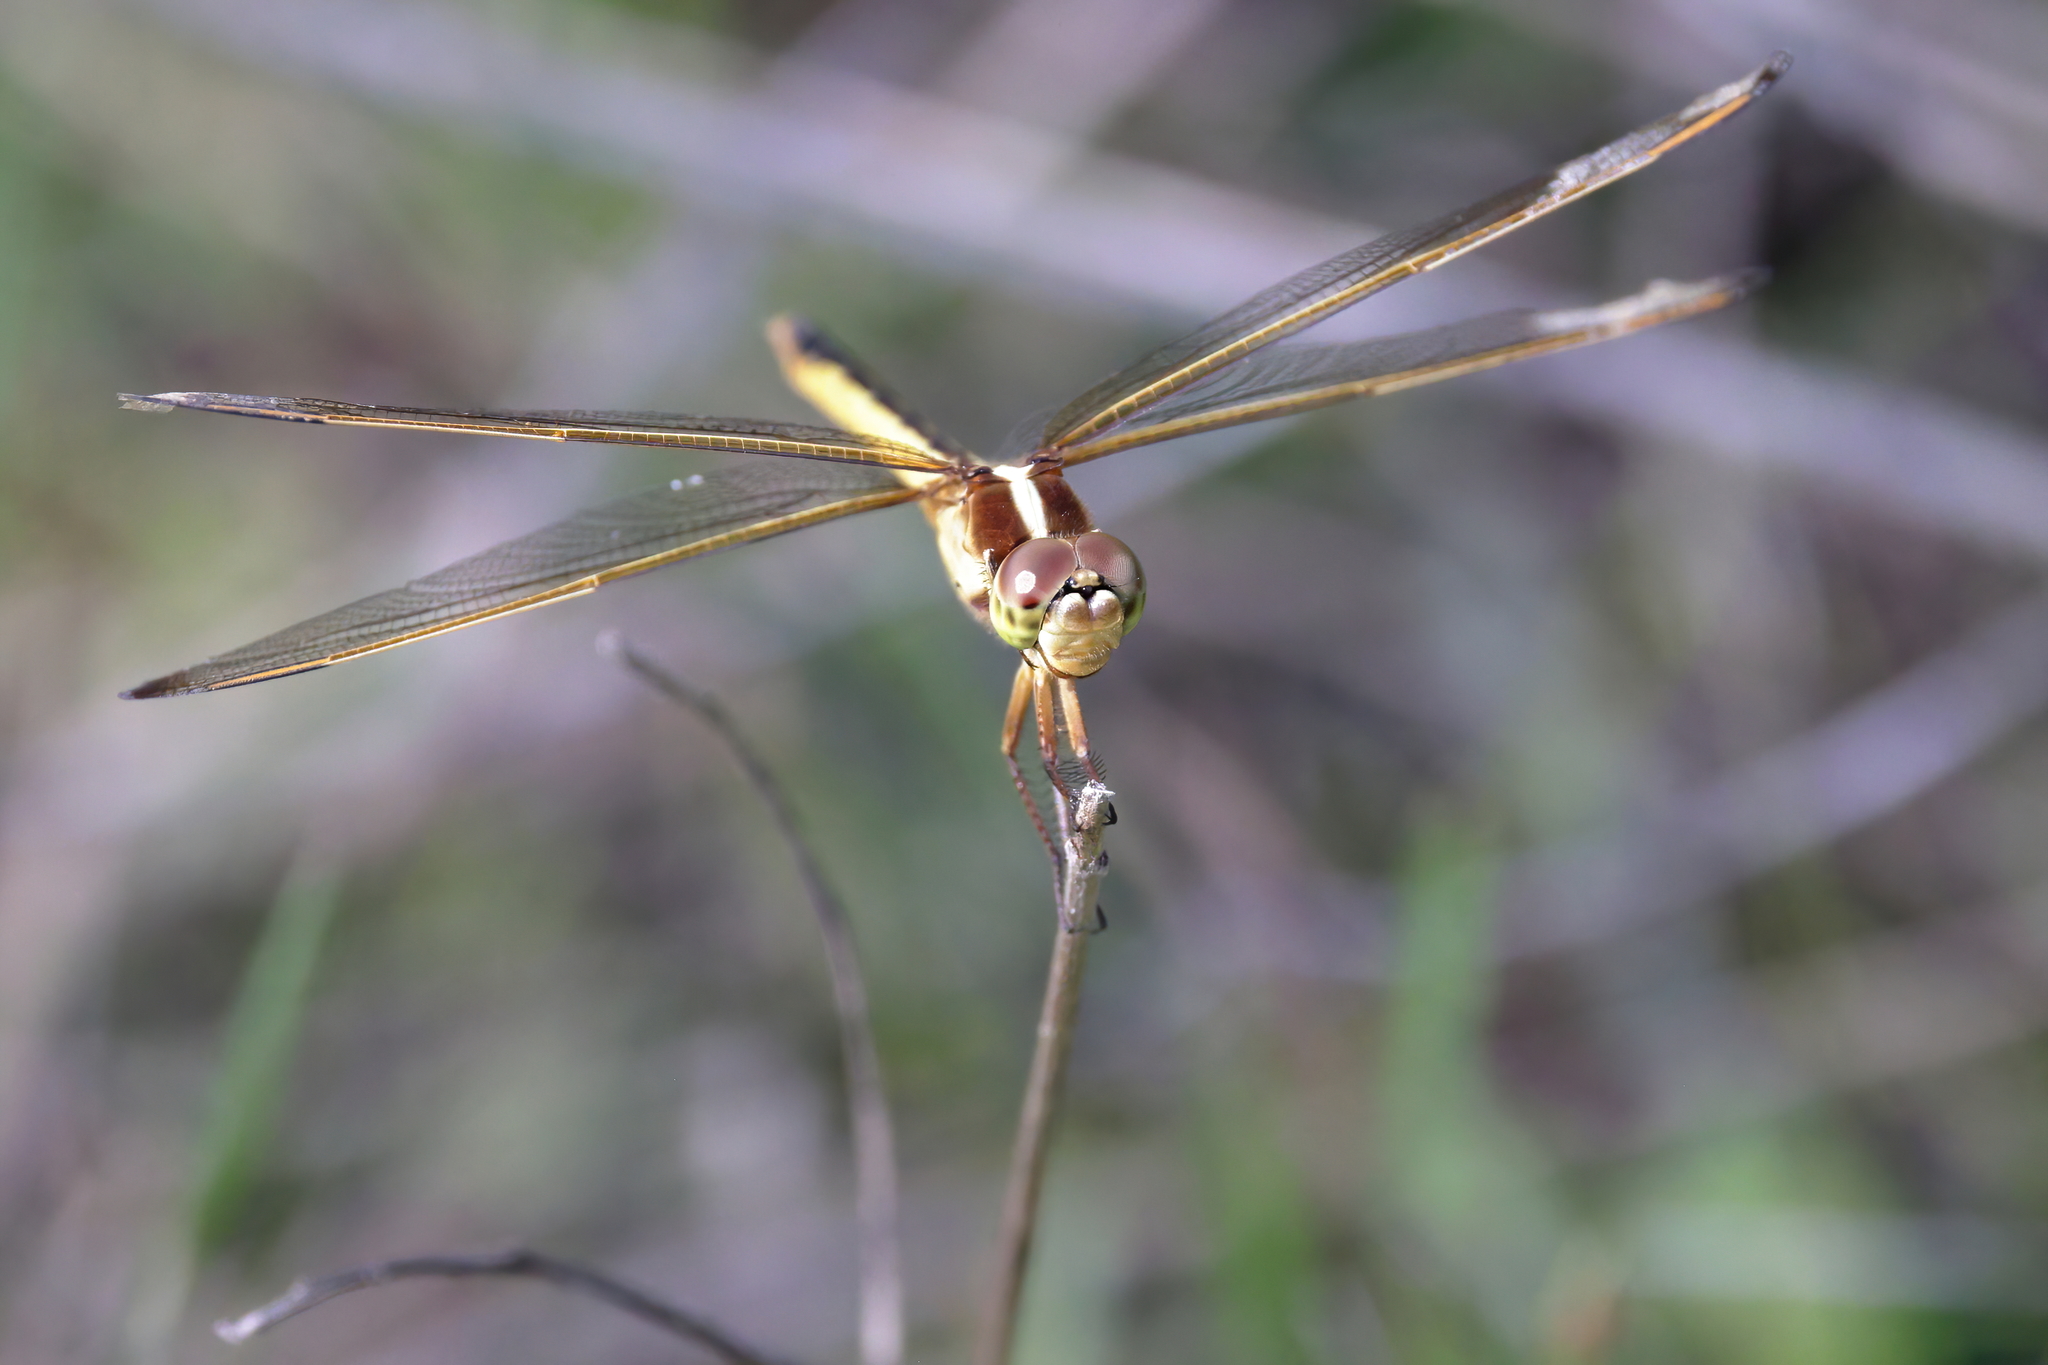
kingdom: Animalia
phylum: Arthropoda
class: Insecta
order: Odonata
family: Libellulidae
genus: Libellula
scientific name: Libellula needhami
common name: Needham's skimmer
